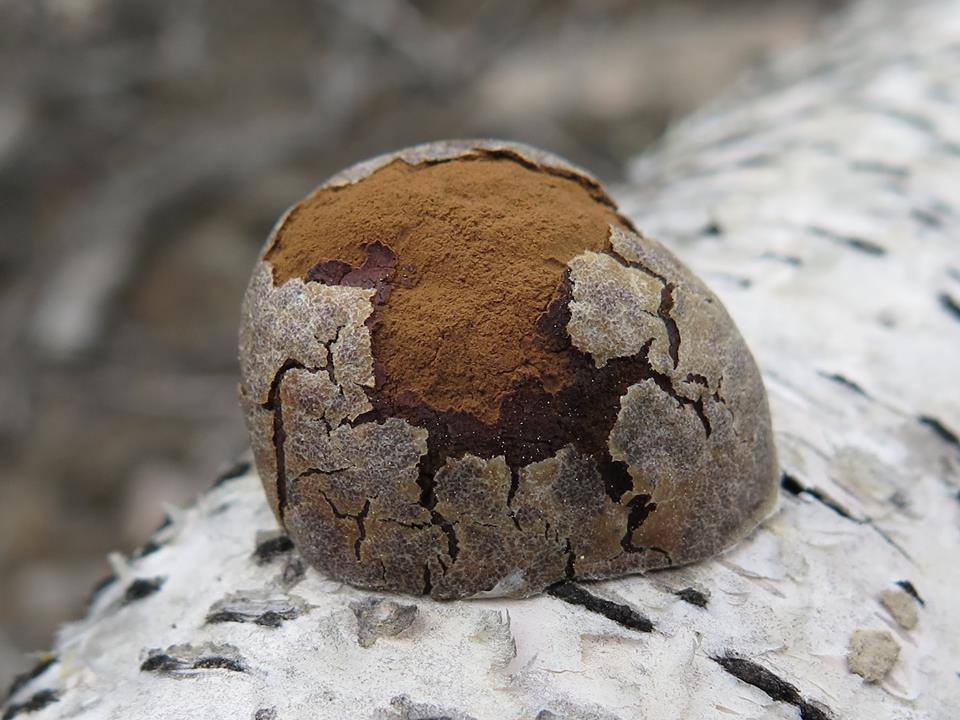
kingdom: Protozoa
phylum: Mycetozoa
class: Myxomycetes
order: Cribrariales
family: Tubiferaceae
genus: Reticularia
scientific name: Reticularia lycoperdon
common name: False puffball
